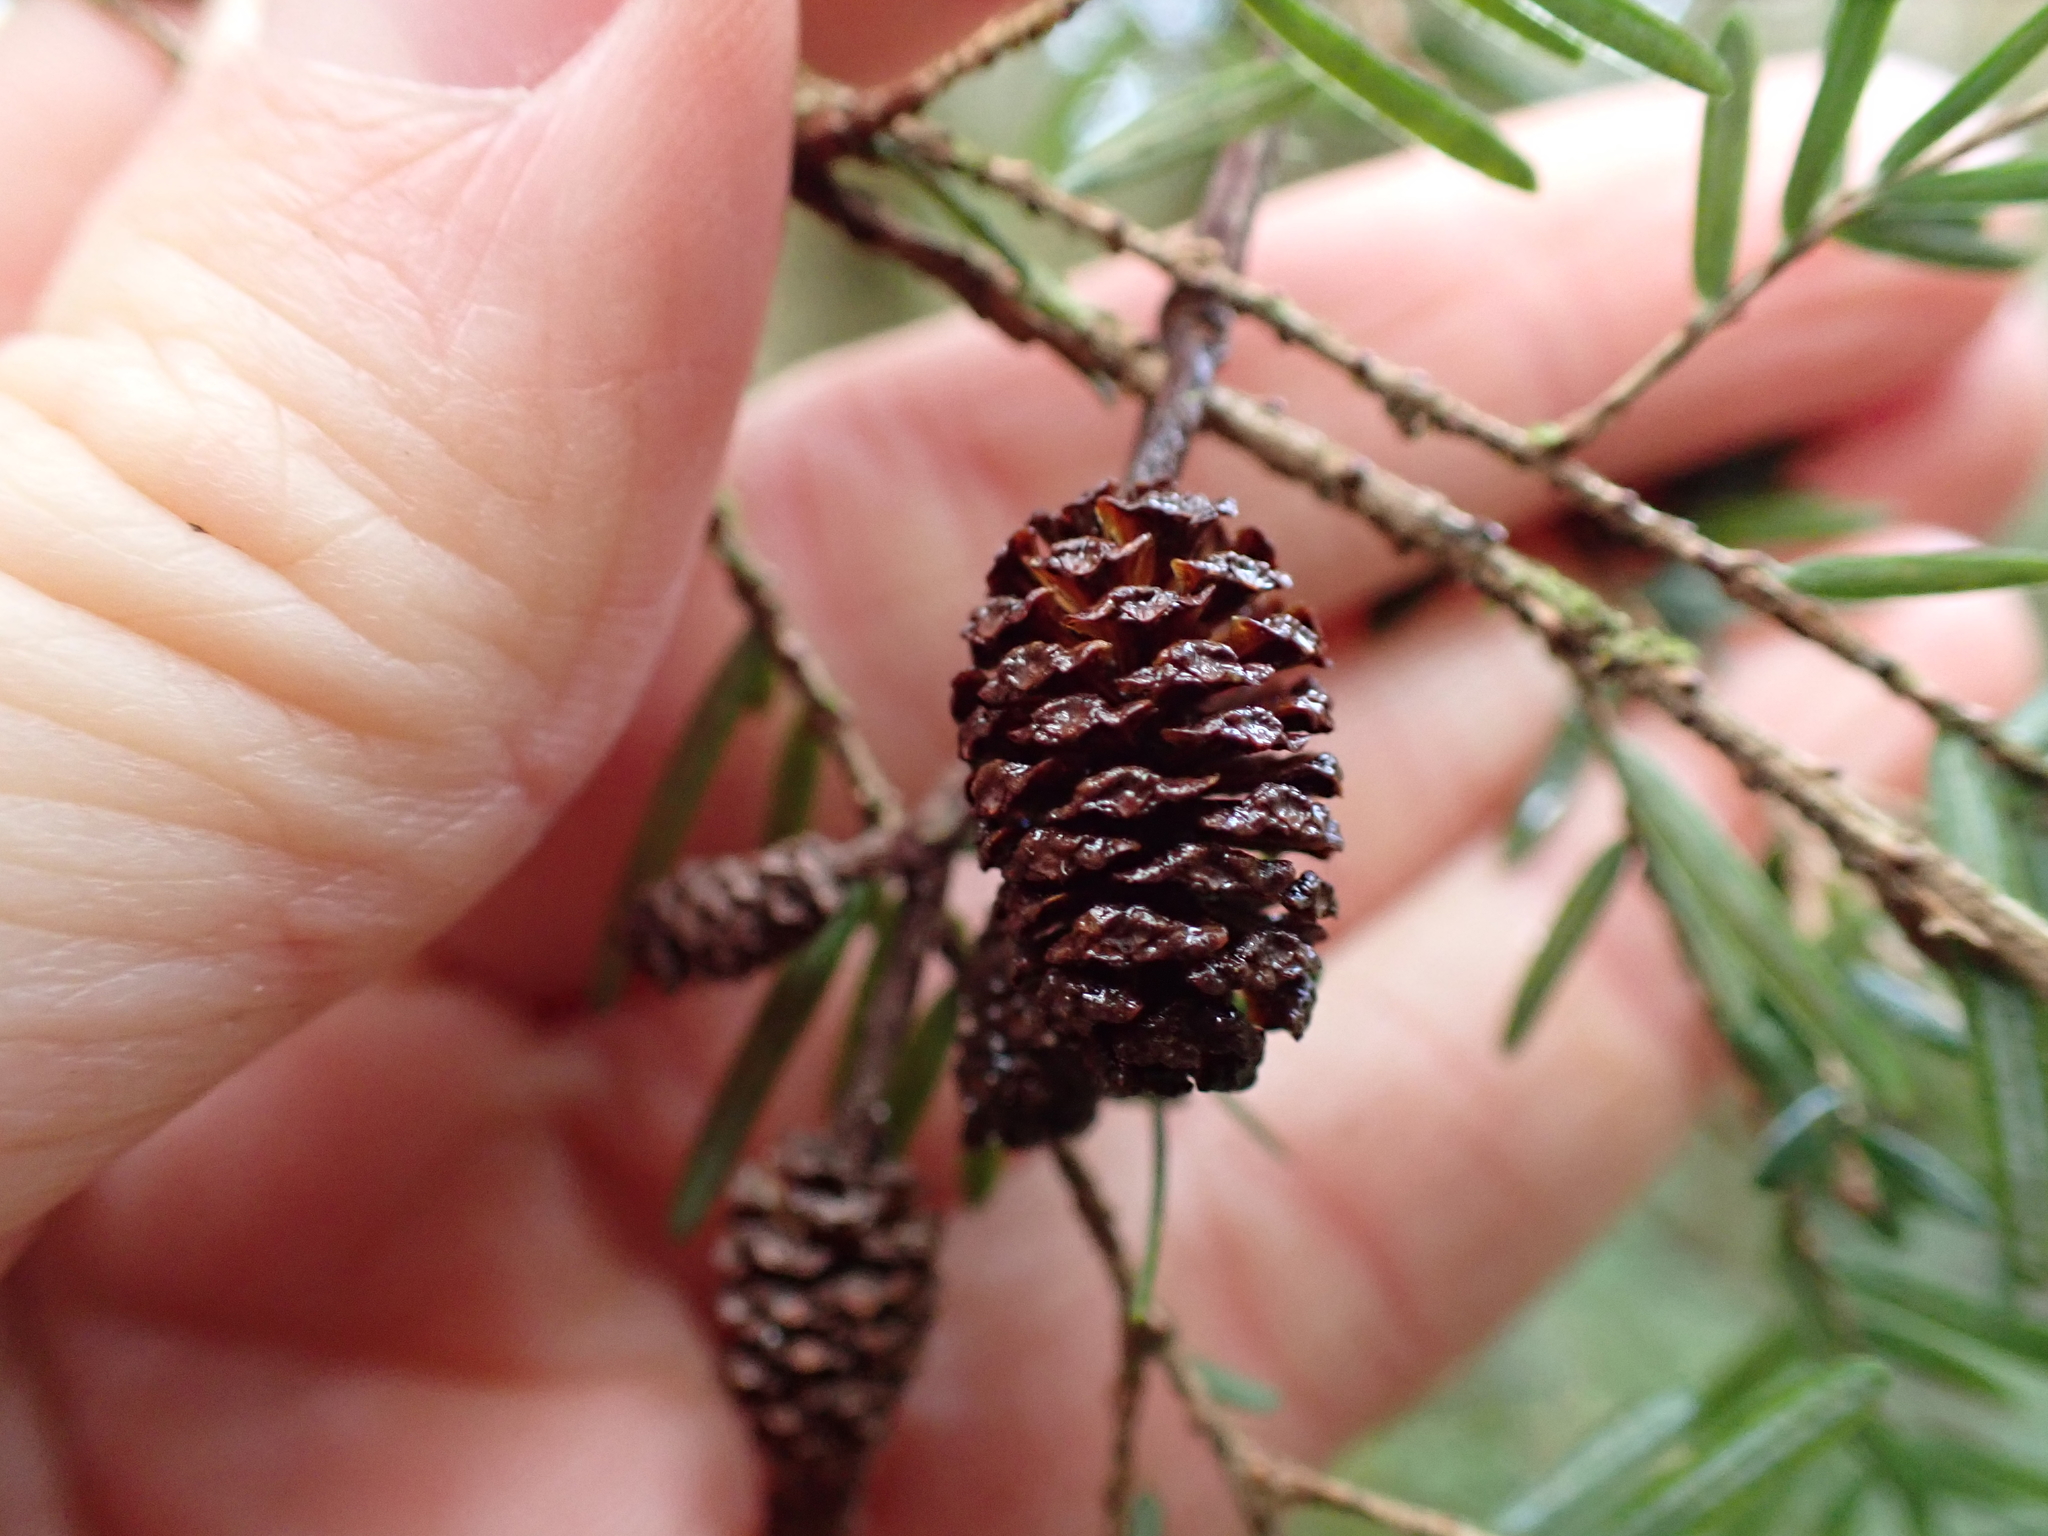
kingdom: Plantae
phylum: Tracheophyta
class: Magnoliopsida
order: Fagales
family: Betulaceae
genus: Alnus
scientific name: Alnus rubra
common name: Red alder
